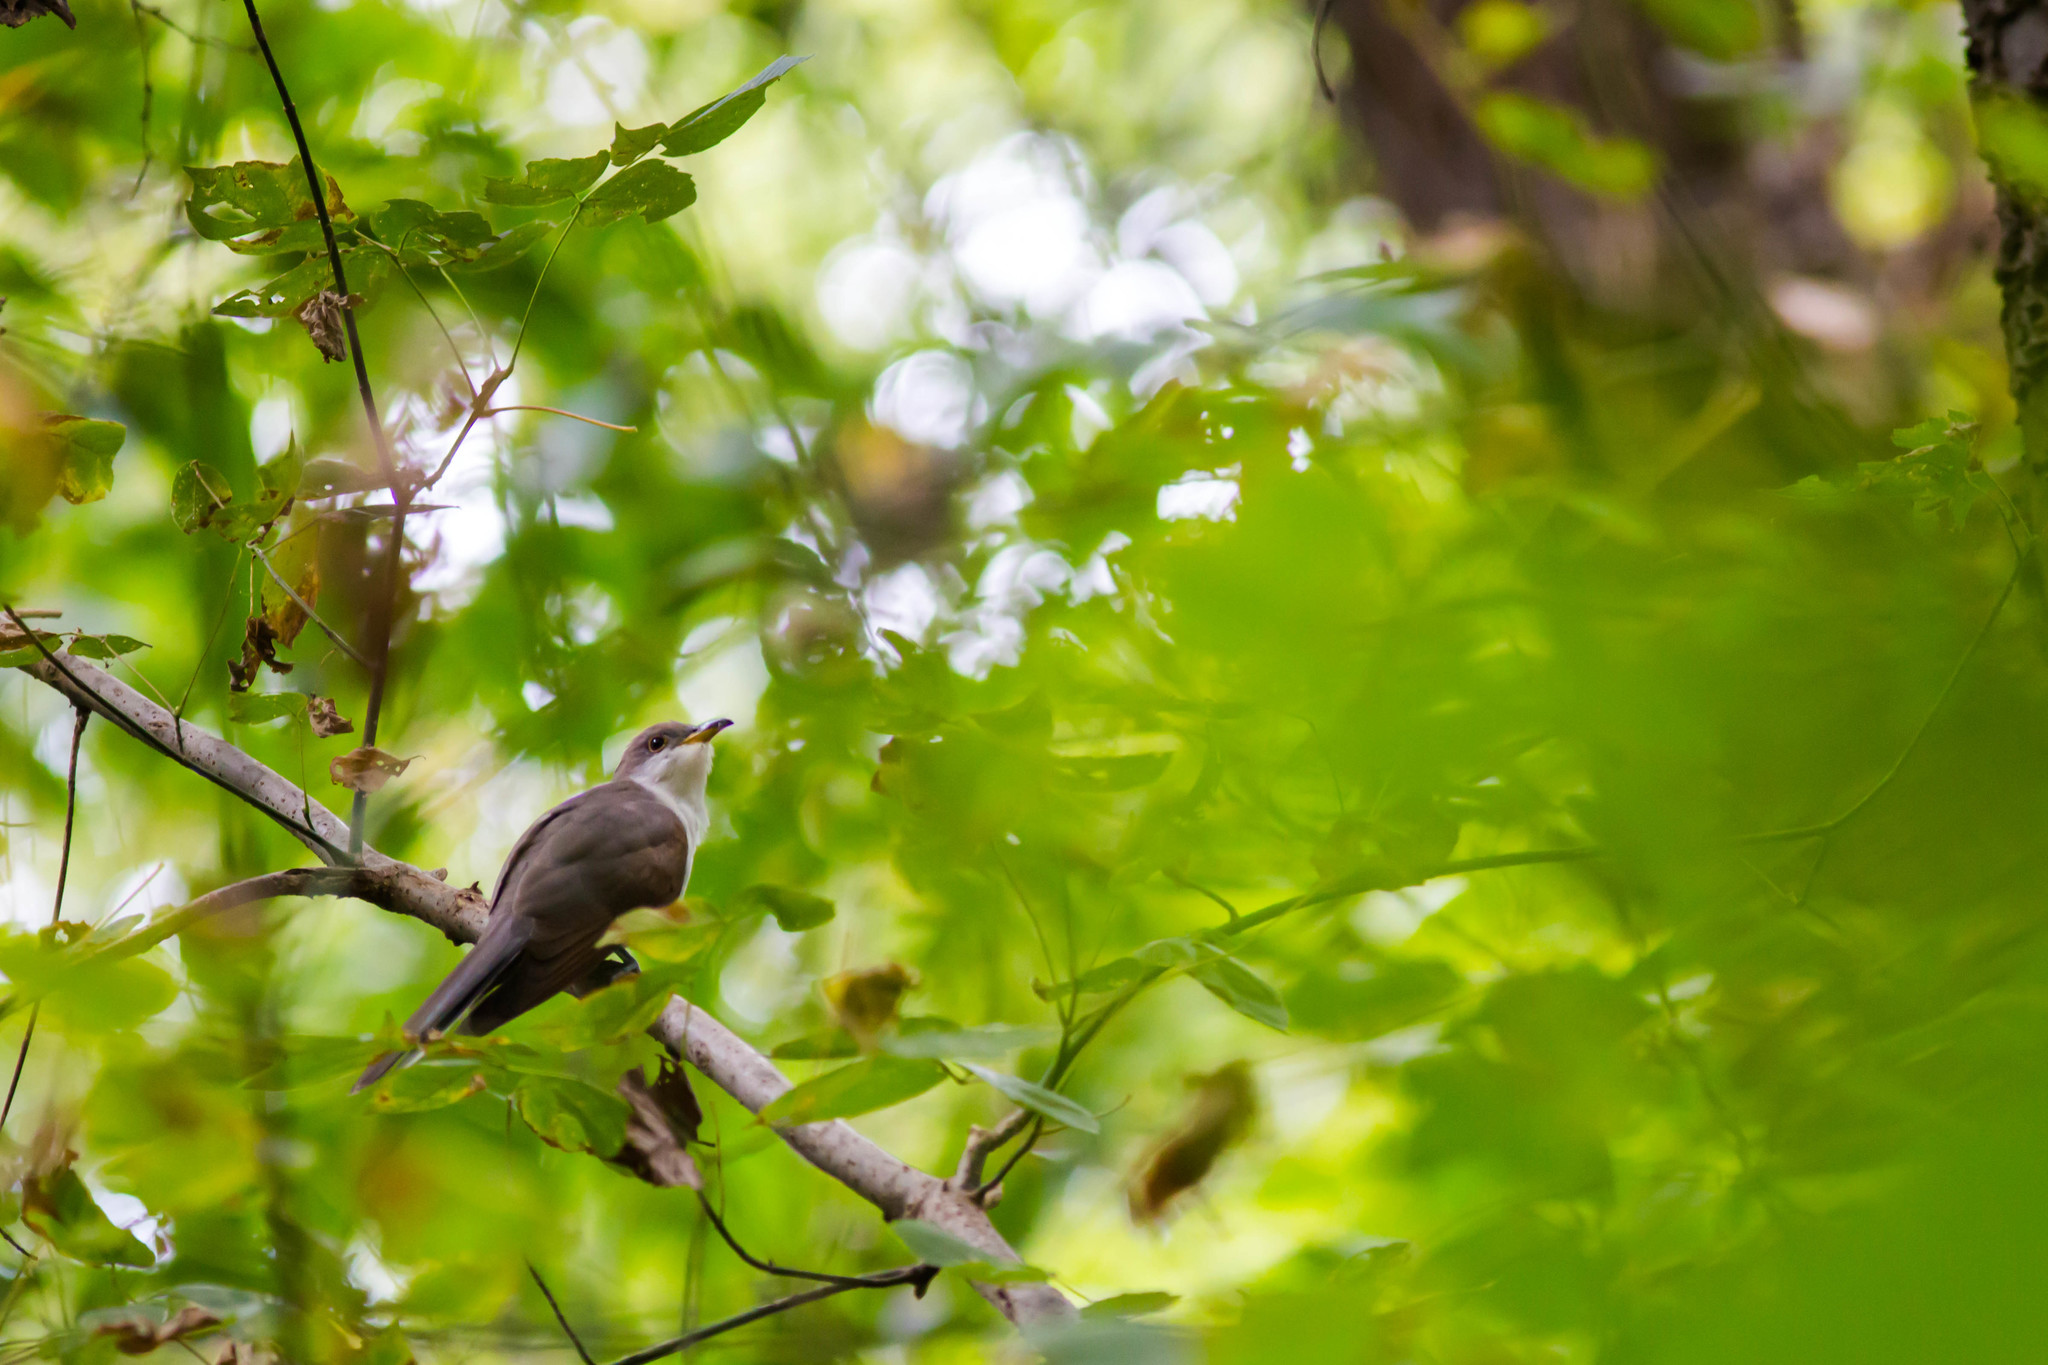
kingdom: Animalia
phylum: Chordata
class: Aves
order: Cuculiformes
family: Cuculidae
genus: Coccyzus
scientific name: Coccyzus americanus
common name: Yellow-billed cuckoo
